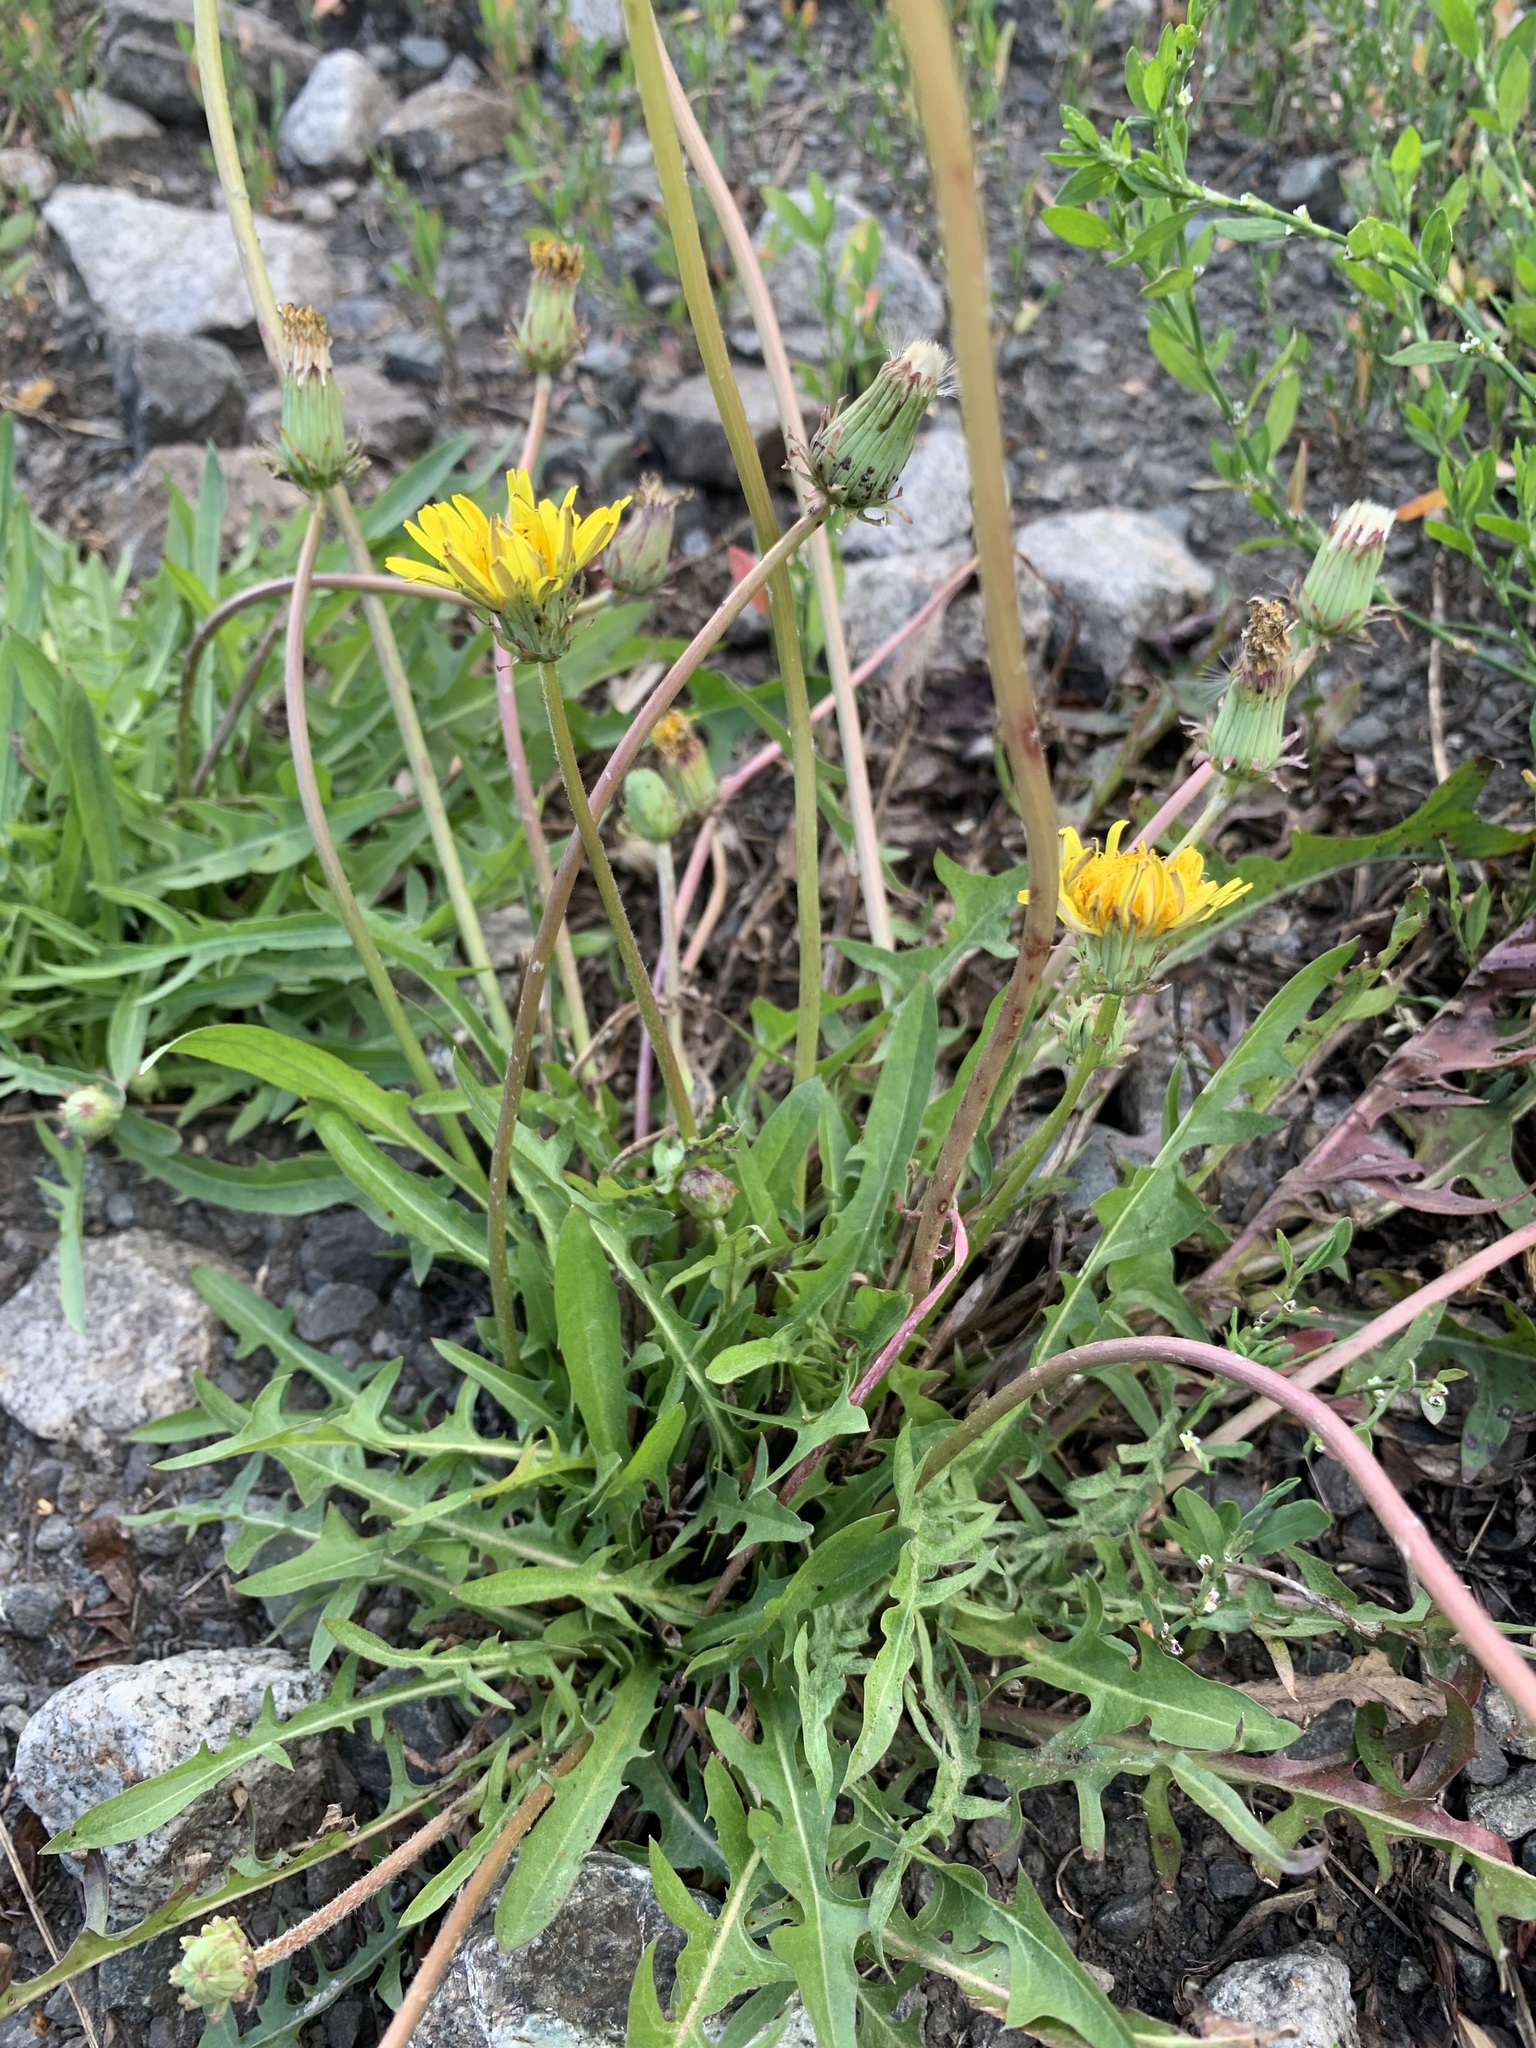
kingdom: Plantae
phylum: Tracheophyta
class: Magnoliopsida
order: Asterales
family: Asteraceae
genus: Taraxacum
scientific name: Taraxacum scariosum
